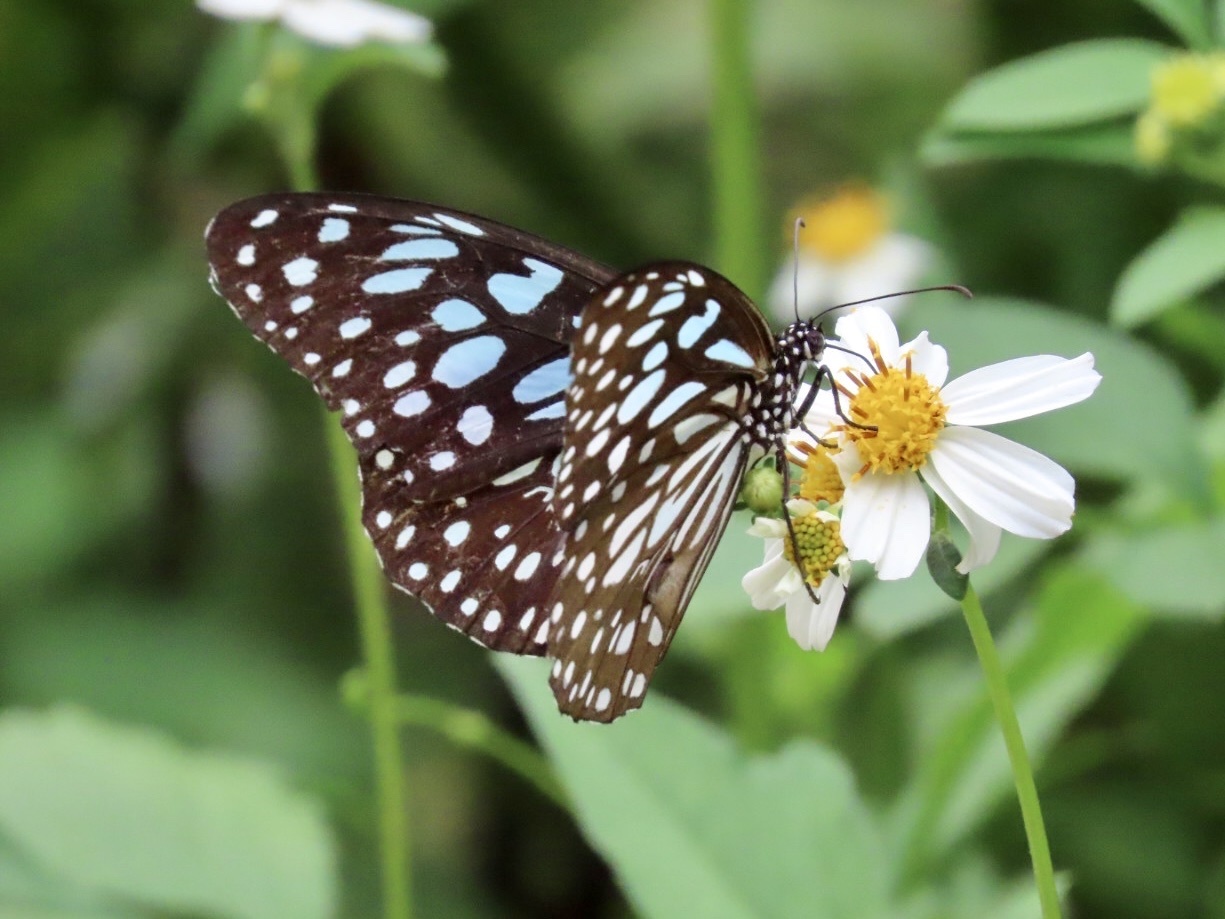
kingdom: Animalia
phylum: Arthropoda
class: Insecta
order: Lepidoptera
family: Nymphalidae
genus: Tirumala
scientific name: Tirumala limniace
